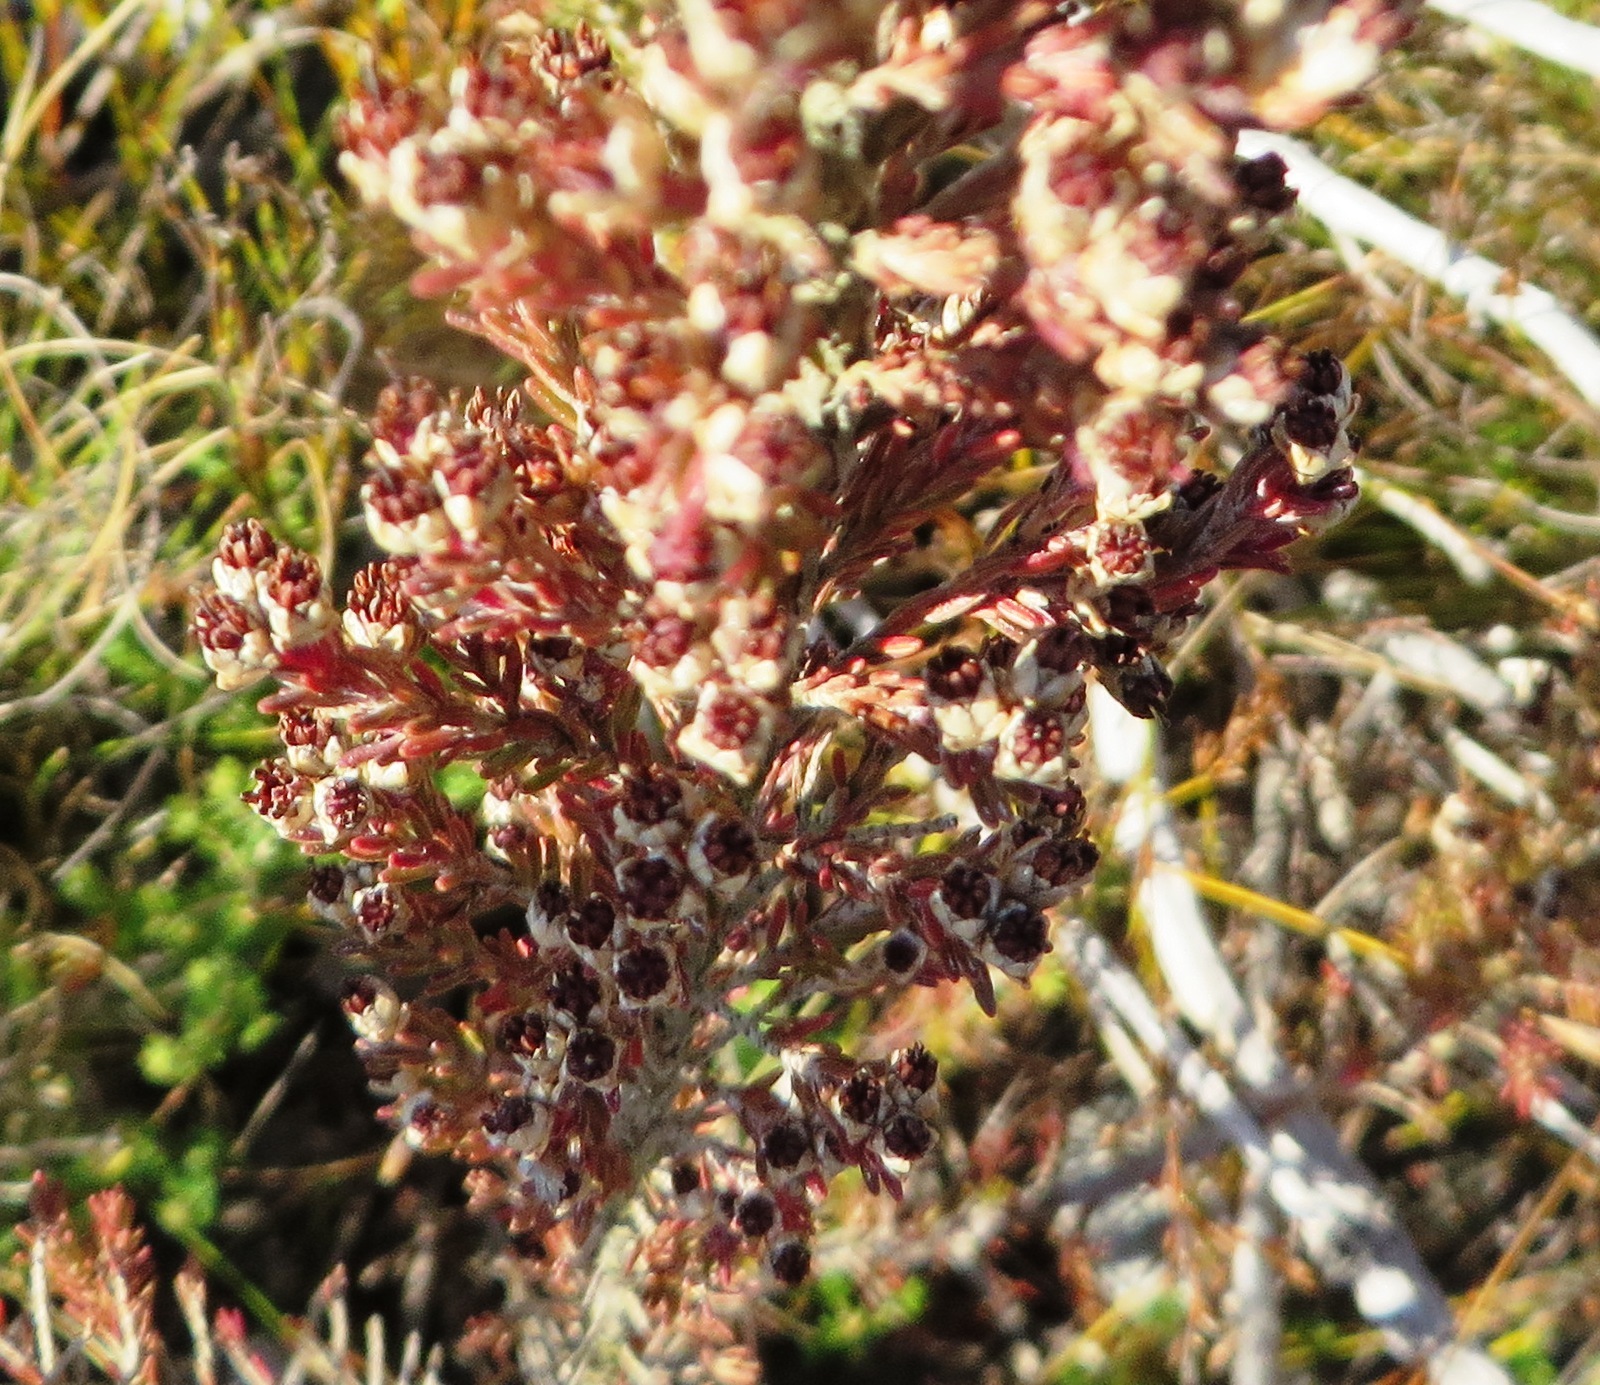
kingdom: Plantae
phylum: Tracheophyta
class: Magnoliopsida
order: Ericales
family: Ericaceae
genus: Erica
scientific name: Erica involvens
